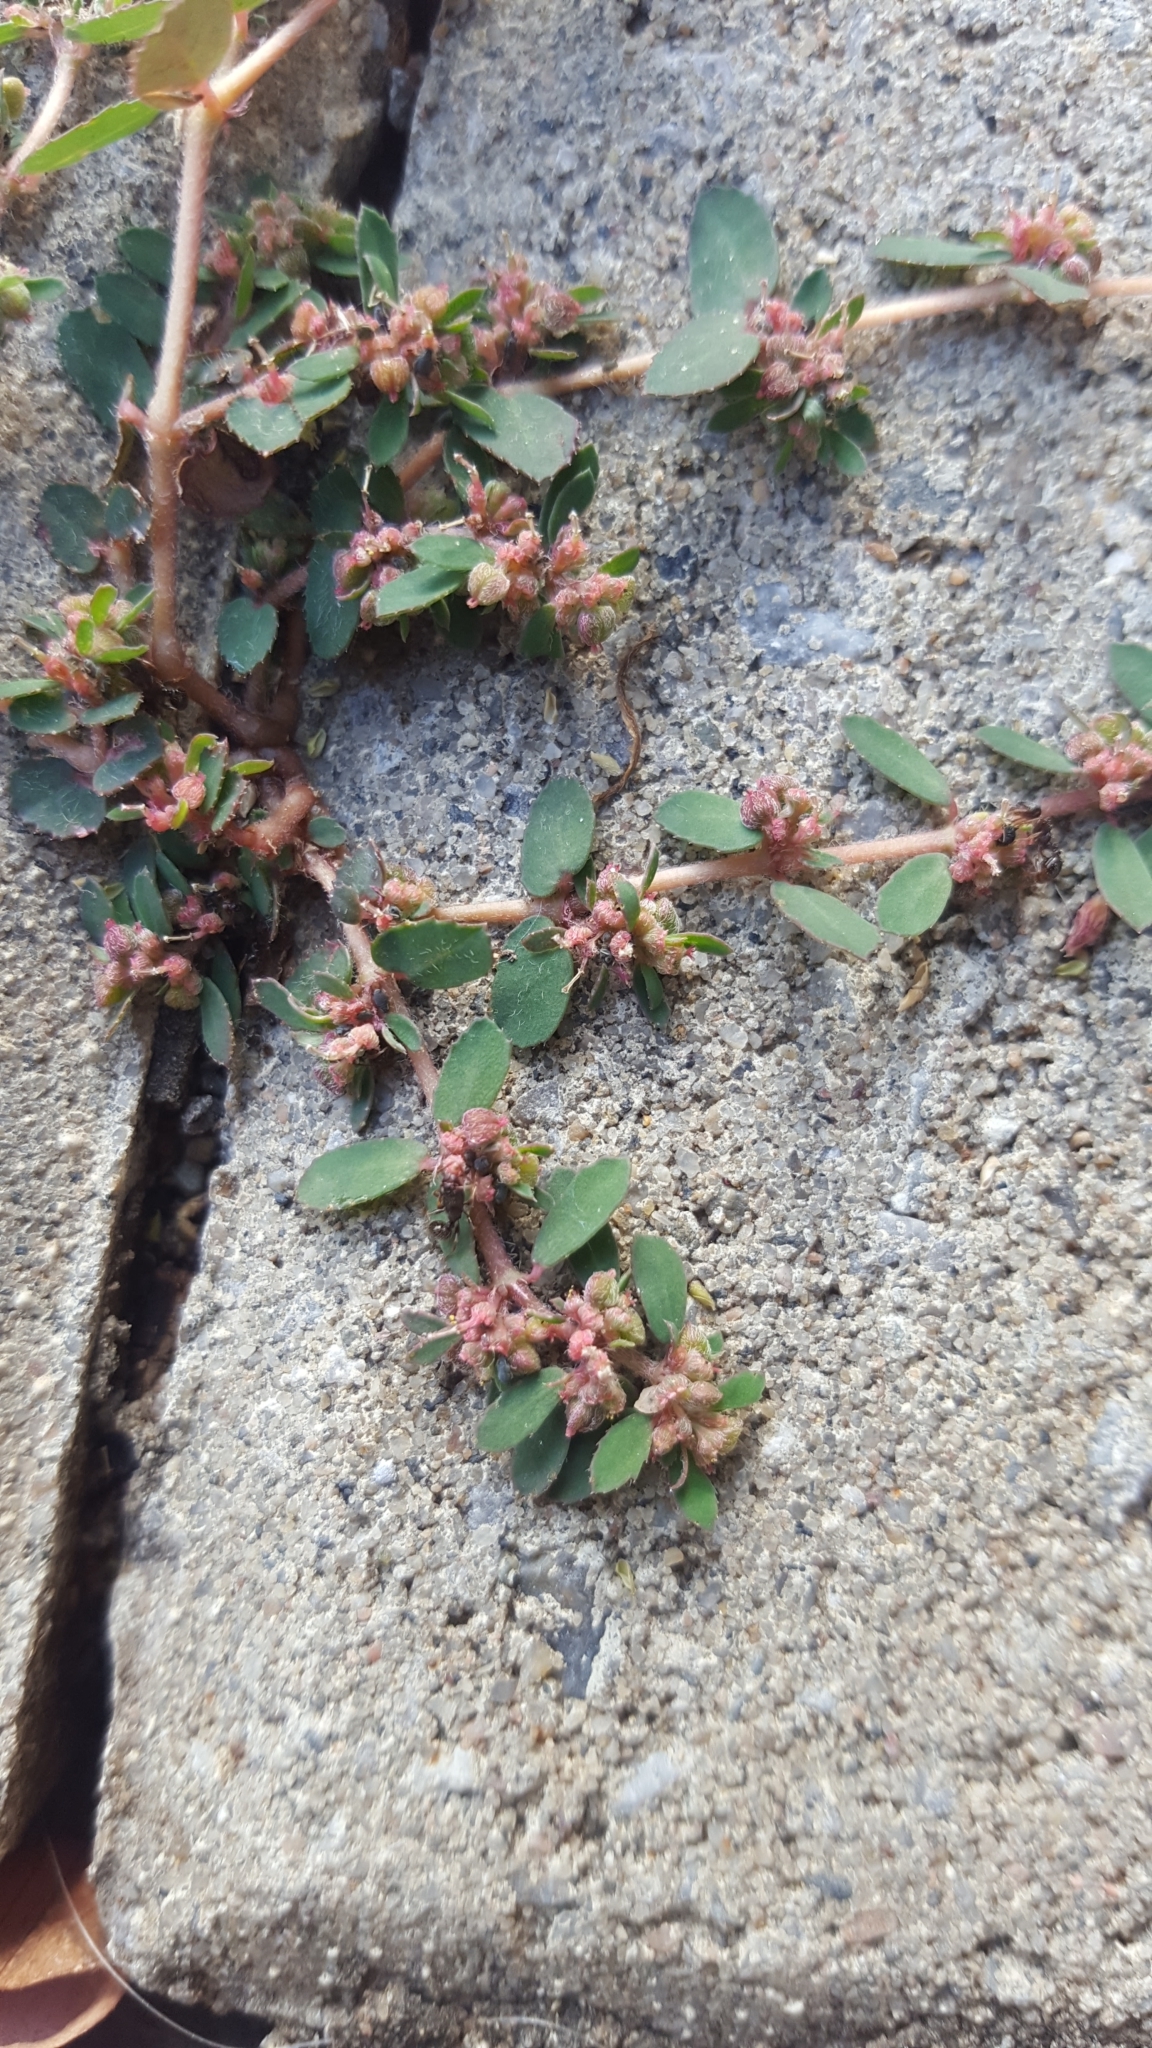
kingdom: Plantae
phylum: Tracheophyta
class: Magnoliopsida
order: Malpighiales
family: Euphorbiaceae
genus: Euphorbia
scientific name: Euphorbia maculata
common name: Spotted spurge
